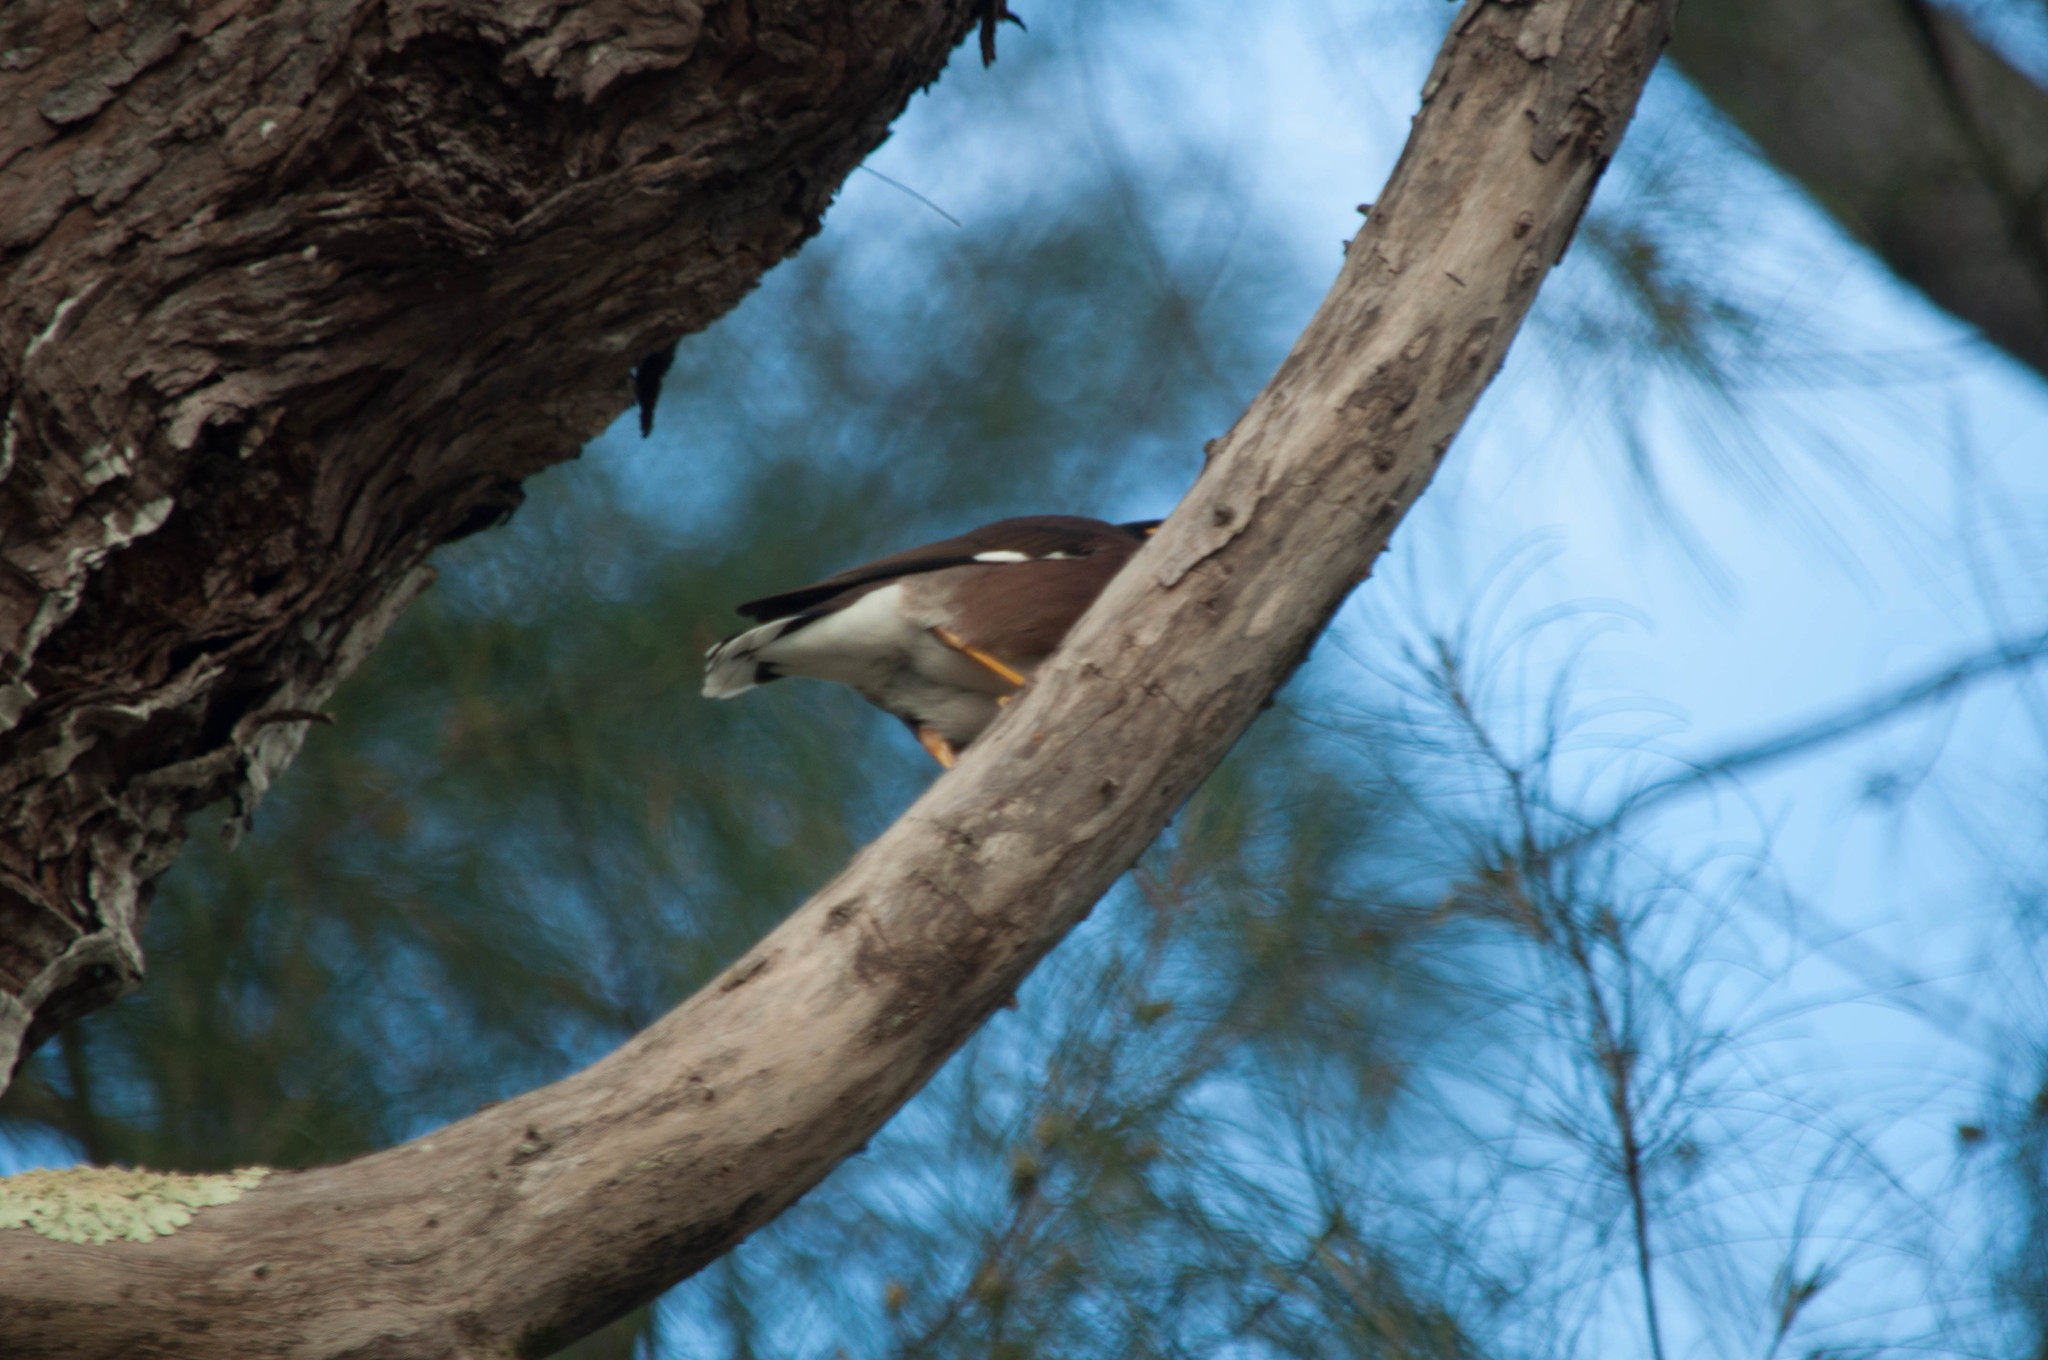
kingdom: Animalia
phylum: Chordata
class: Aves
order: Passeriformes
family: Sturnidae
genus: Acridotheres
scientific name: Acridotheres tristis
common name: Common myna
